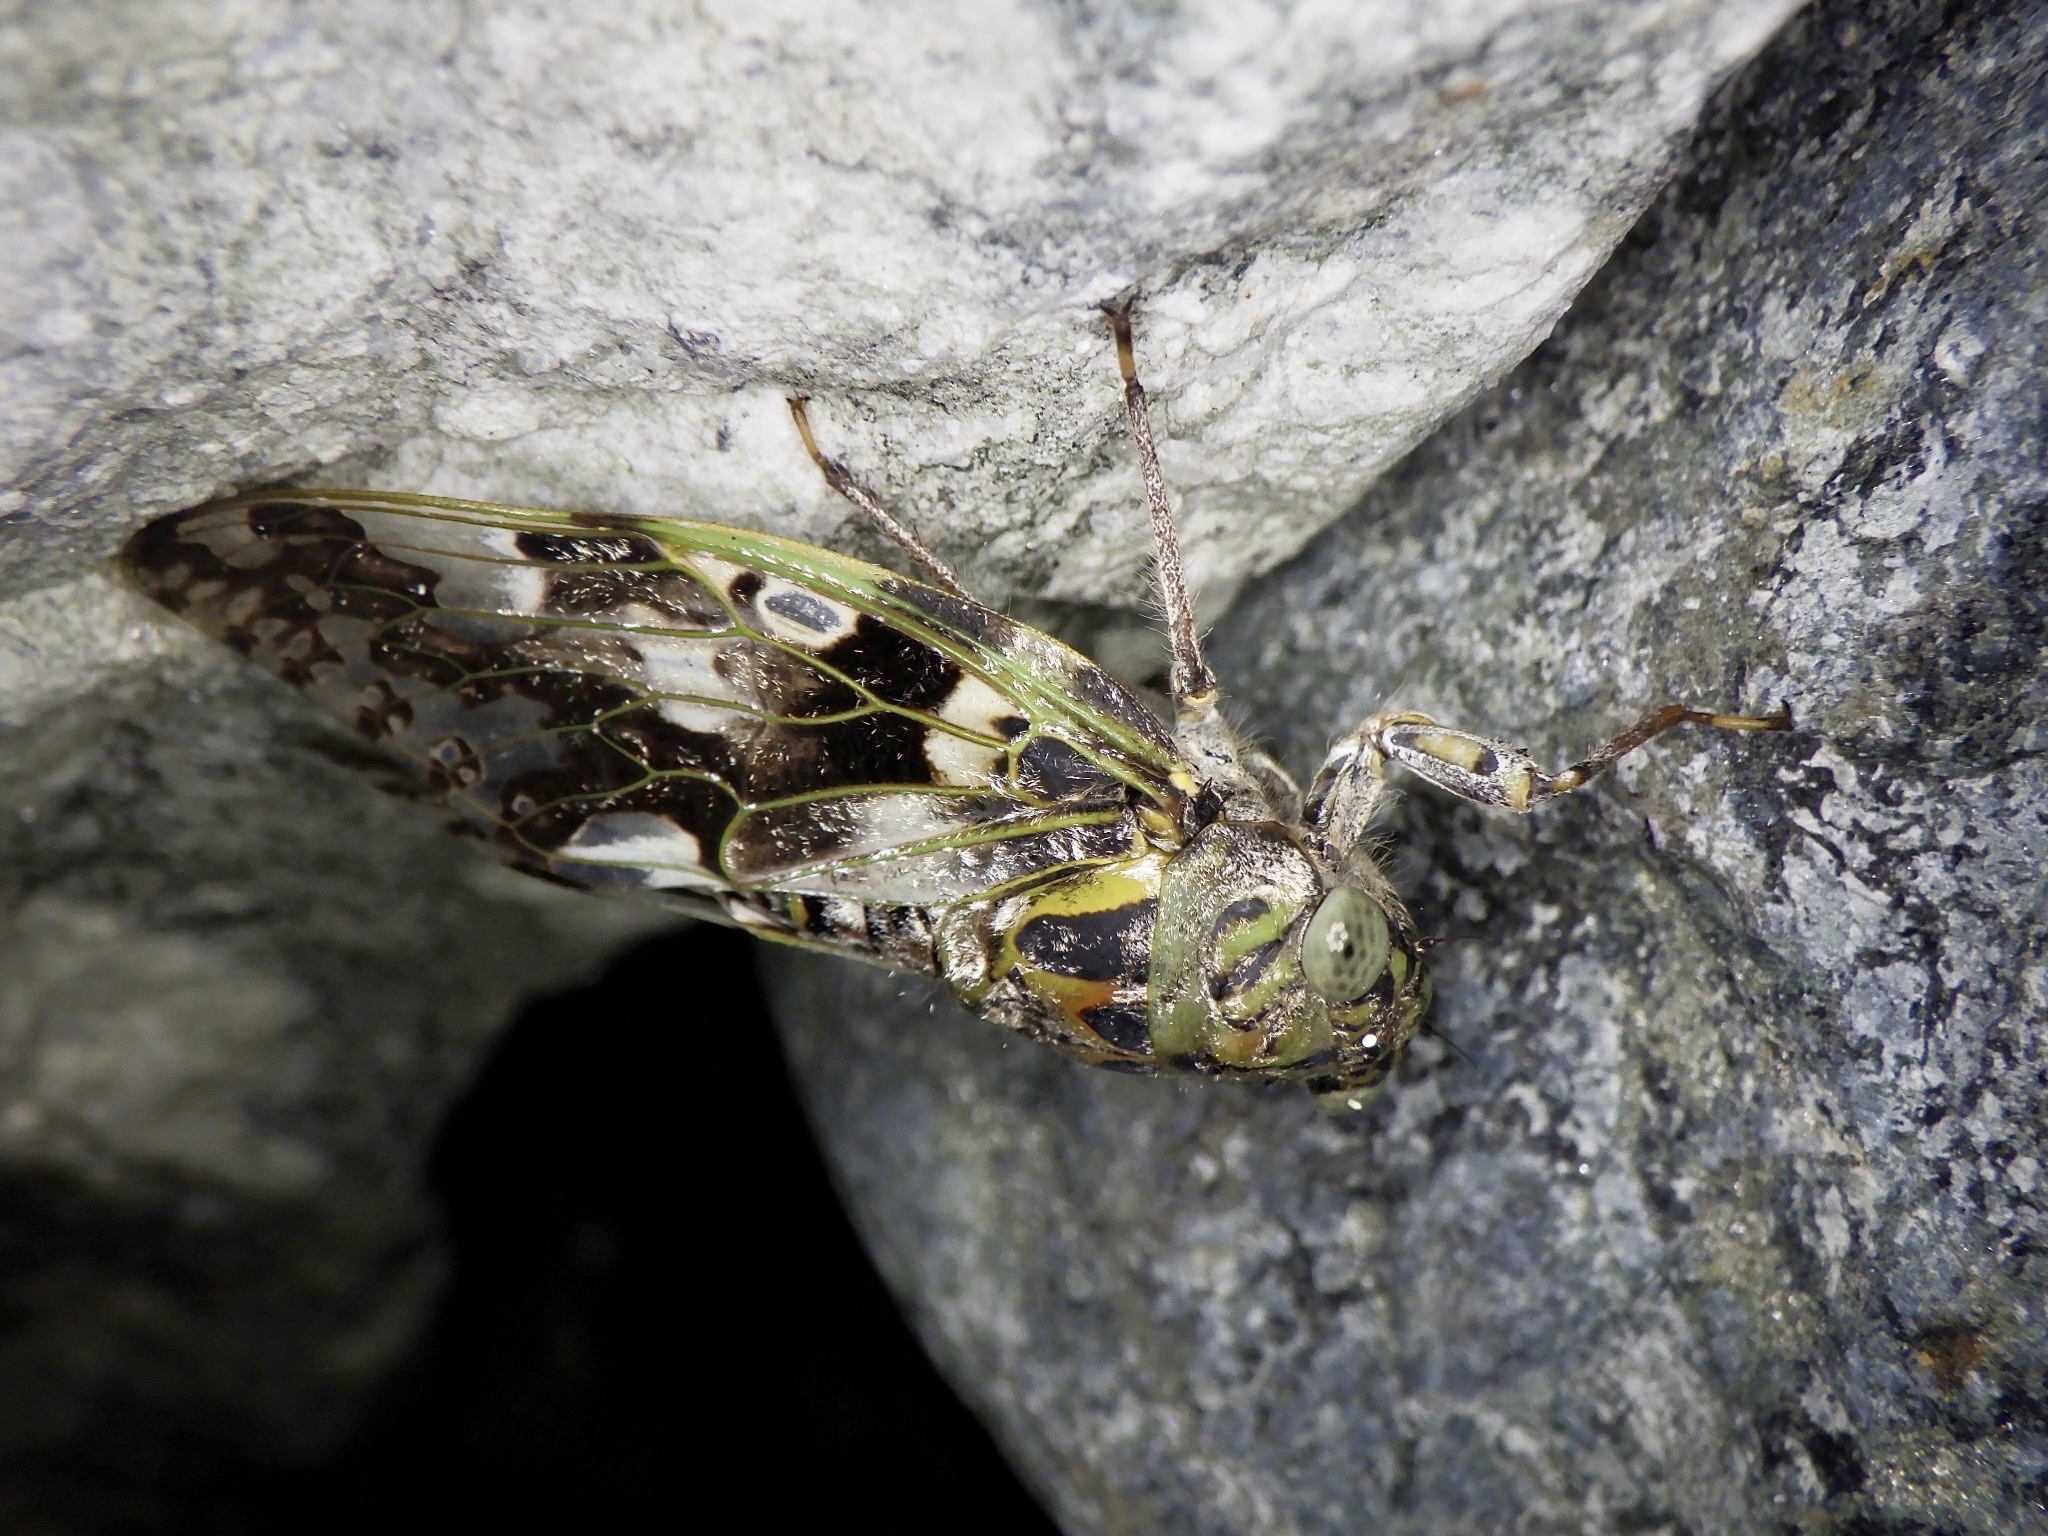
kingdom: Animalia
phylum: Arthropoda
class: Insecta
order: Hemiptera
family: Cicadidae
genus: Platypleura
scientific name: Platypleura kaempferi
